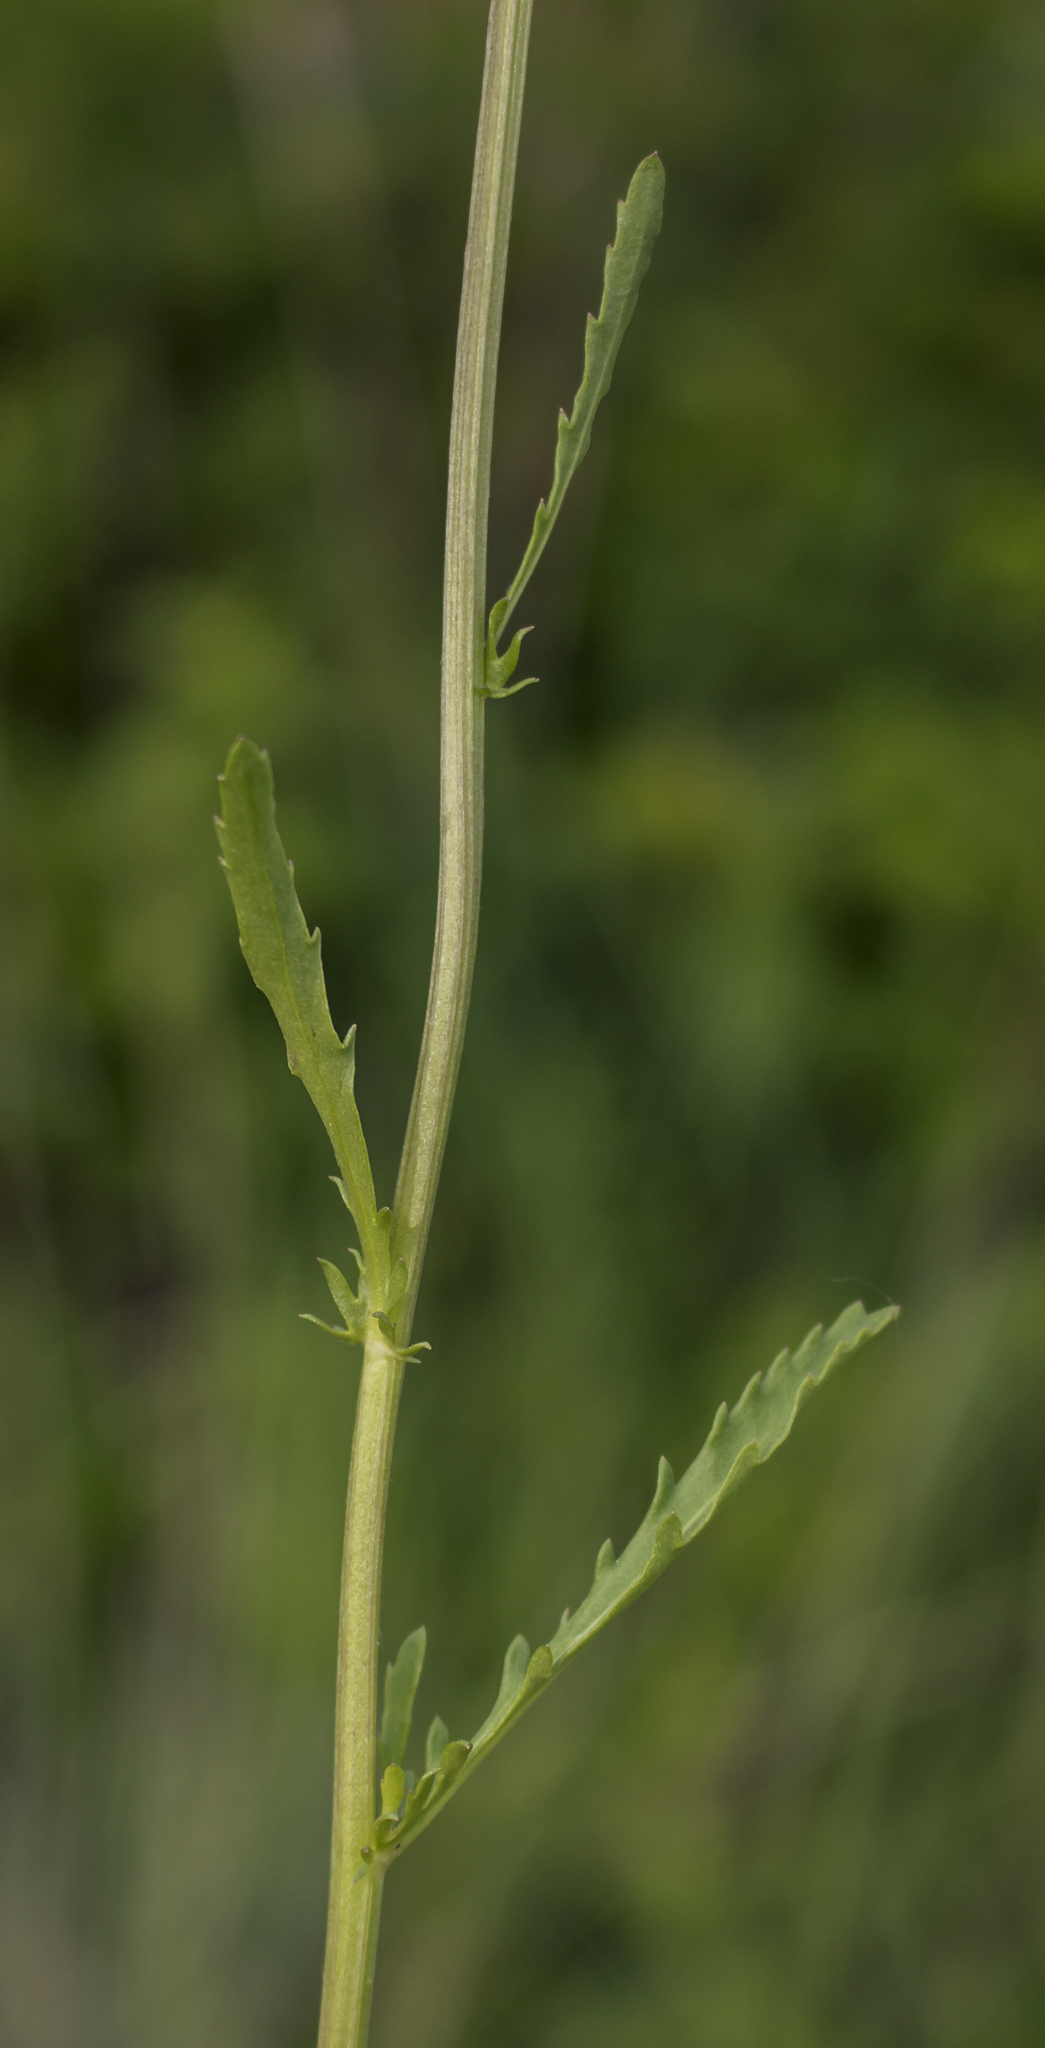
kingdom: Plantae
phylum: Tracheophyta
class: Magnoliopsida
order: Asterales
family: Asteraceae
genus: Leucanthemum
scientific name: Leucanthemum vulgare
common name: Oxeye daisy
